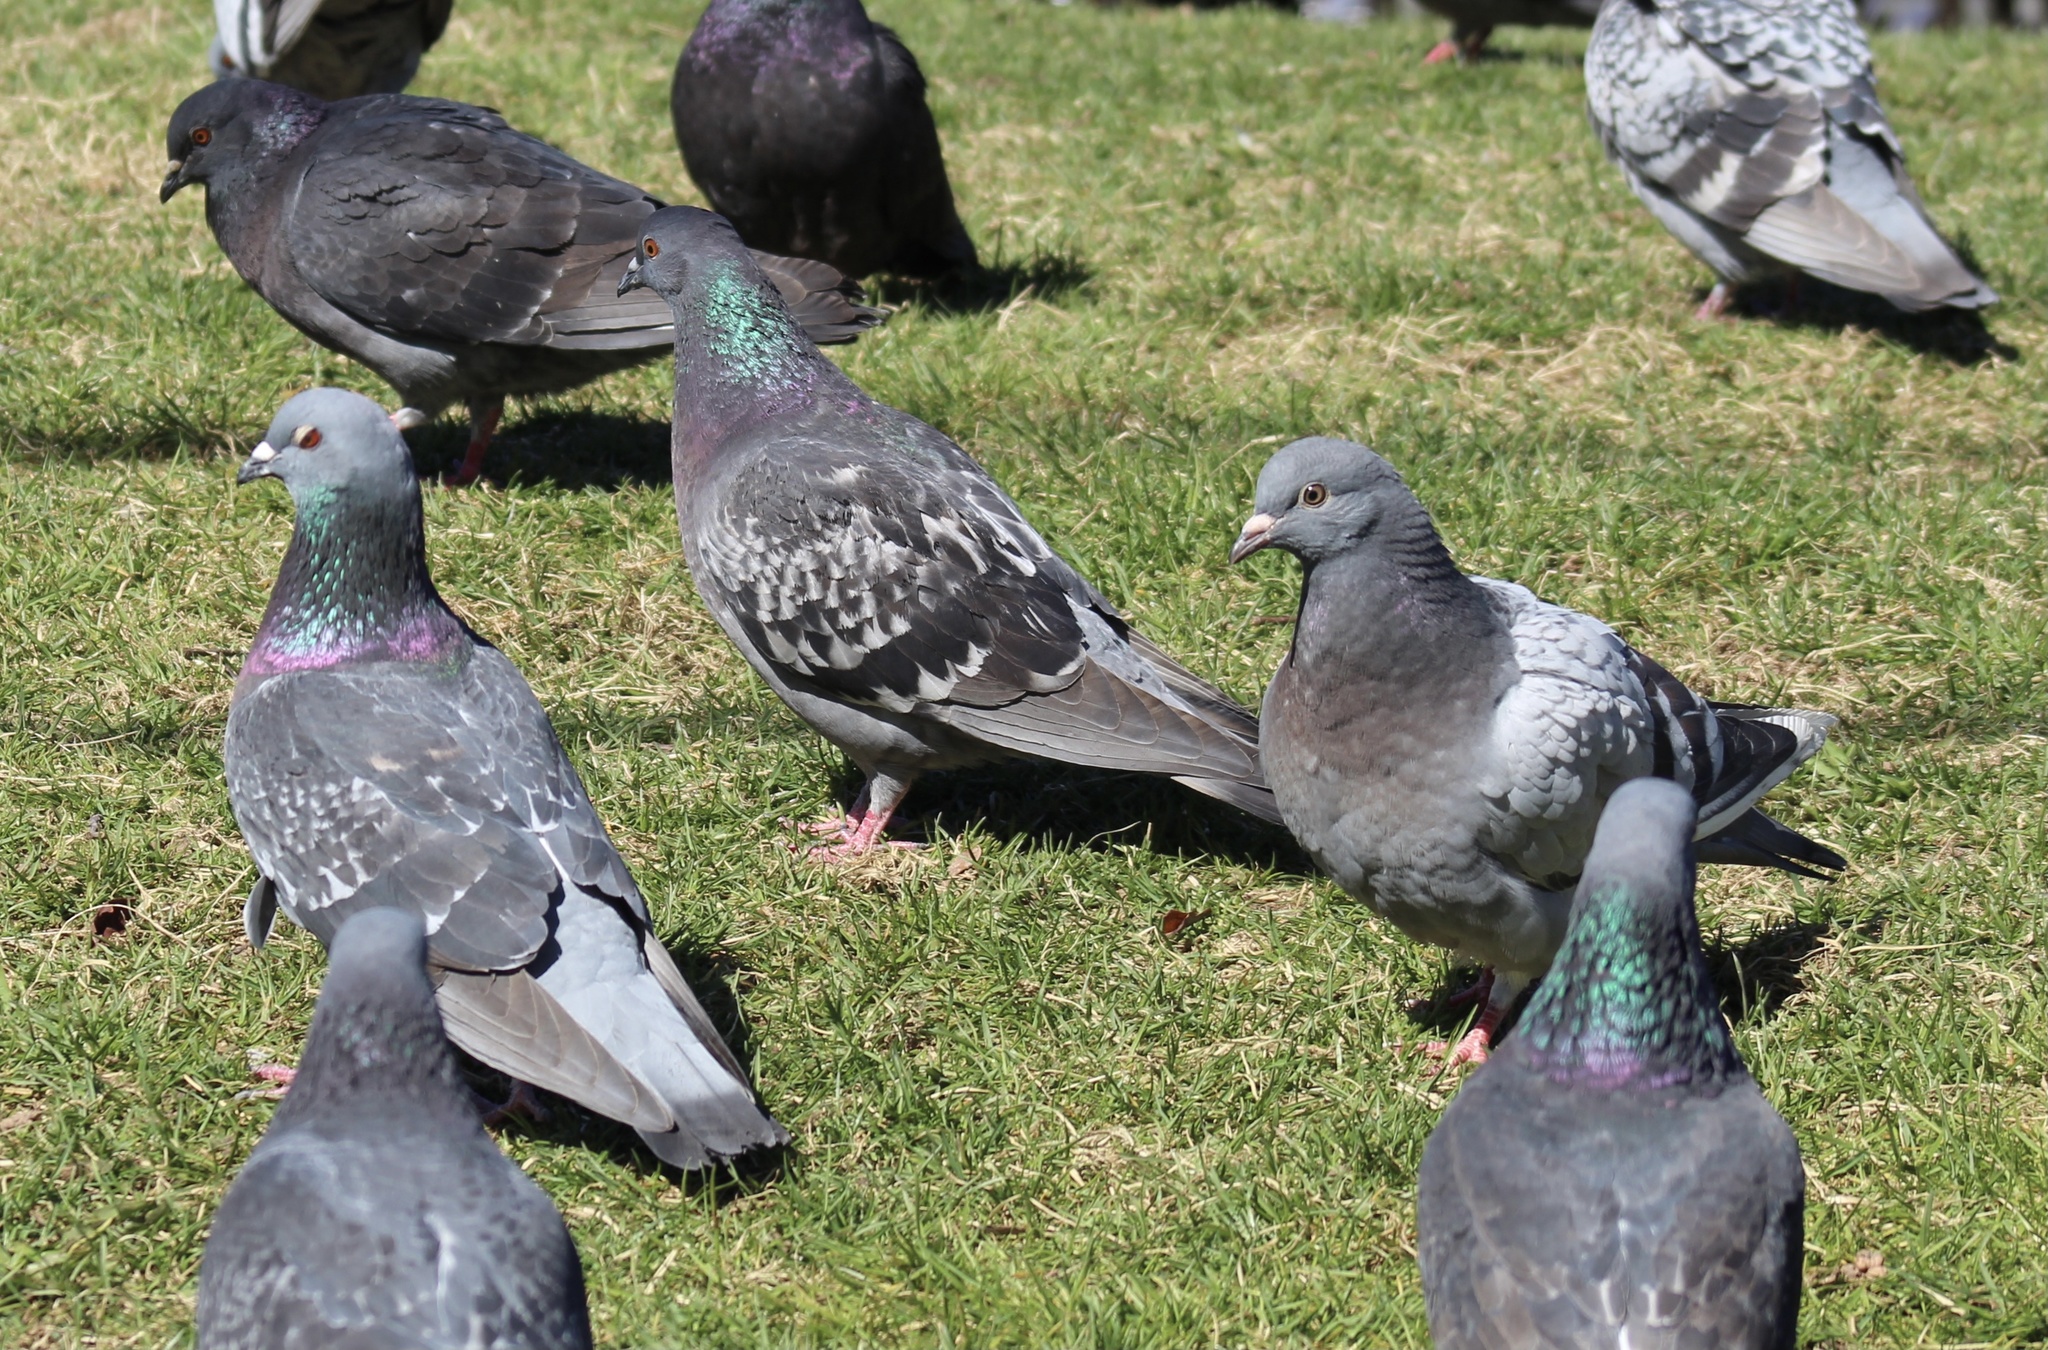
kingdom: Animalia
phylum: Chordata
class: Aves
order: Columbiformes
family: Columbidae
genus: Columba
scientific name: Columba livia
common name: Rock pigeon
